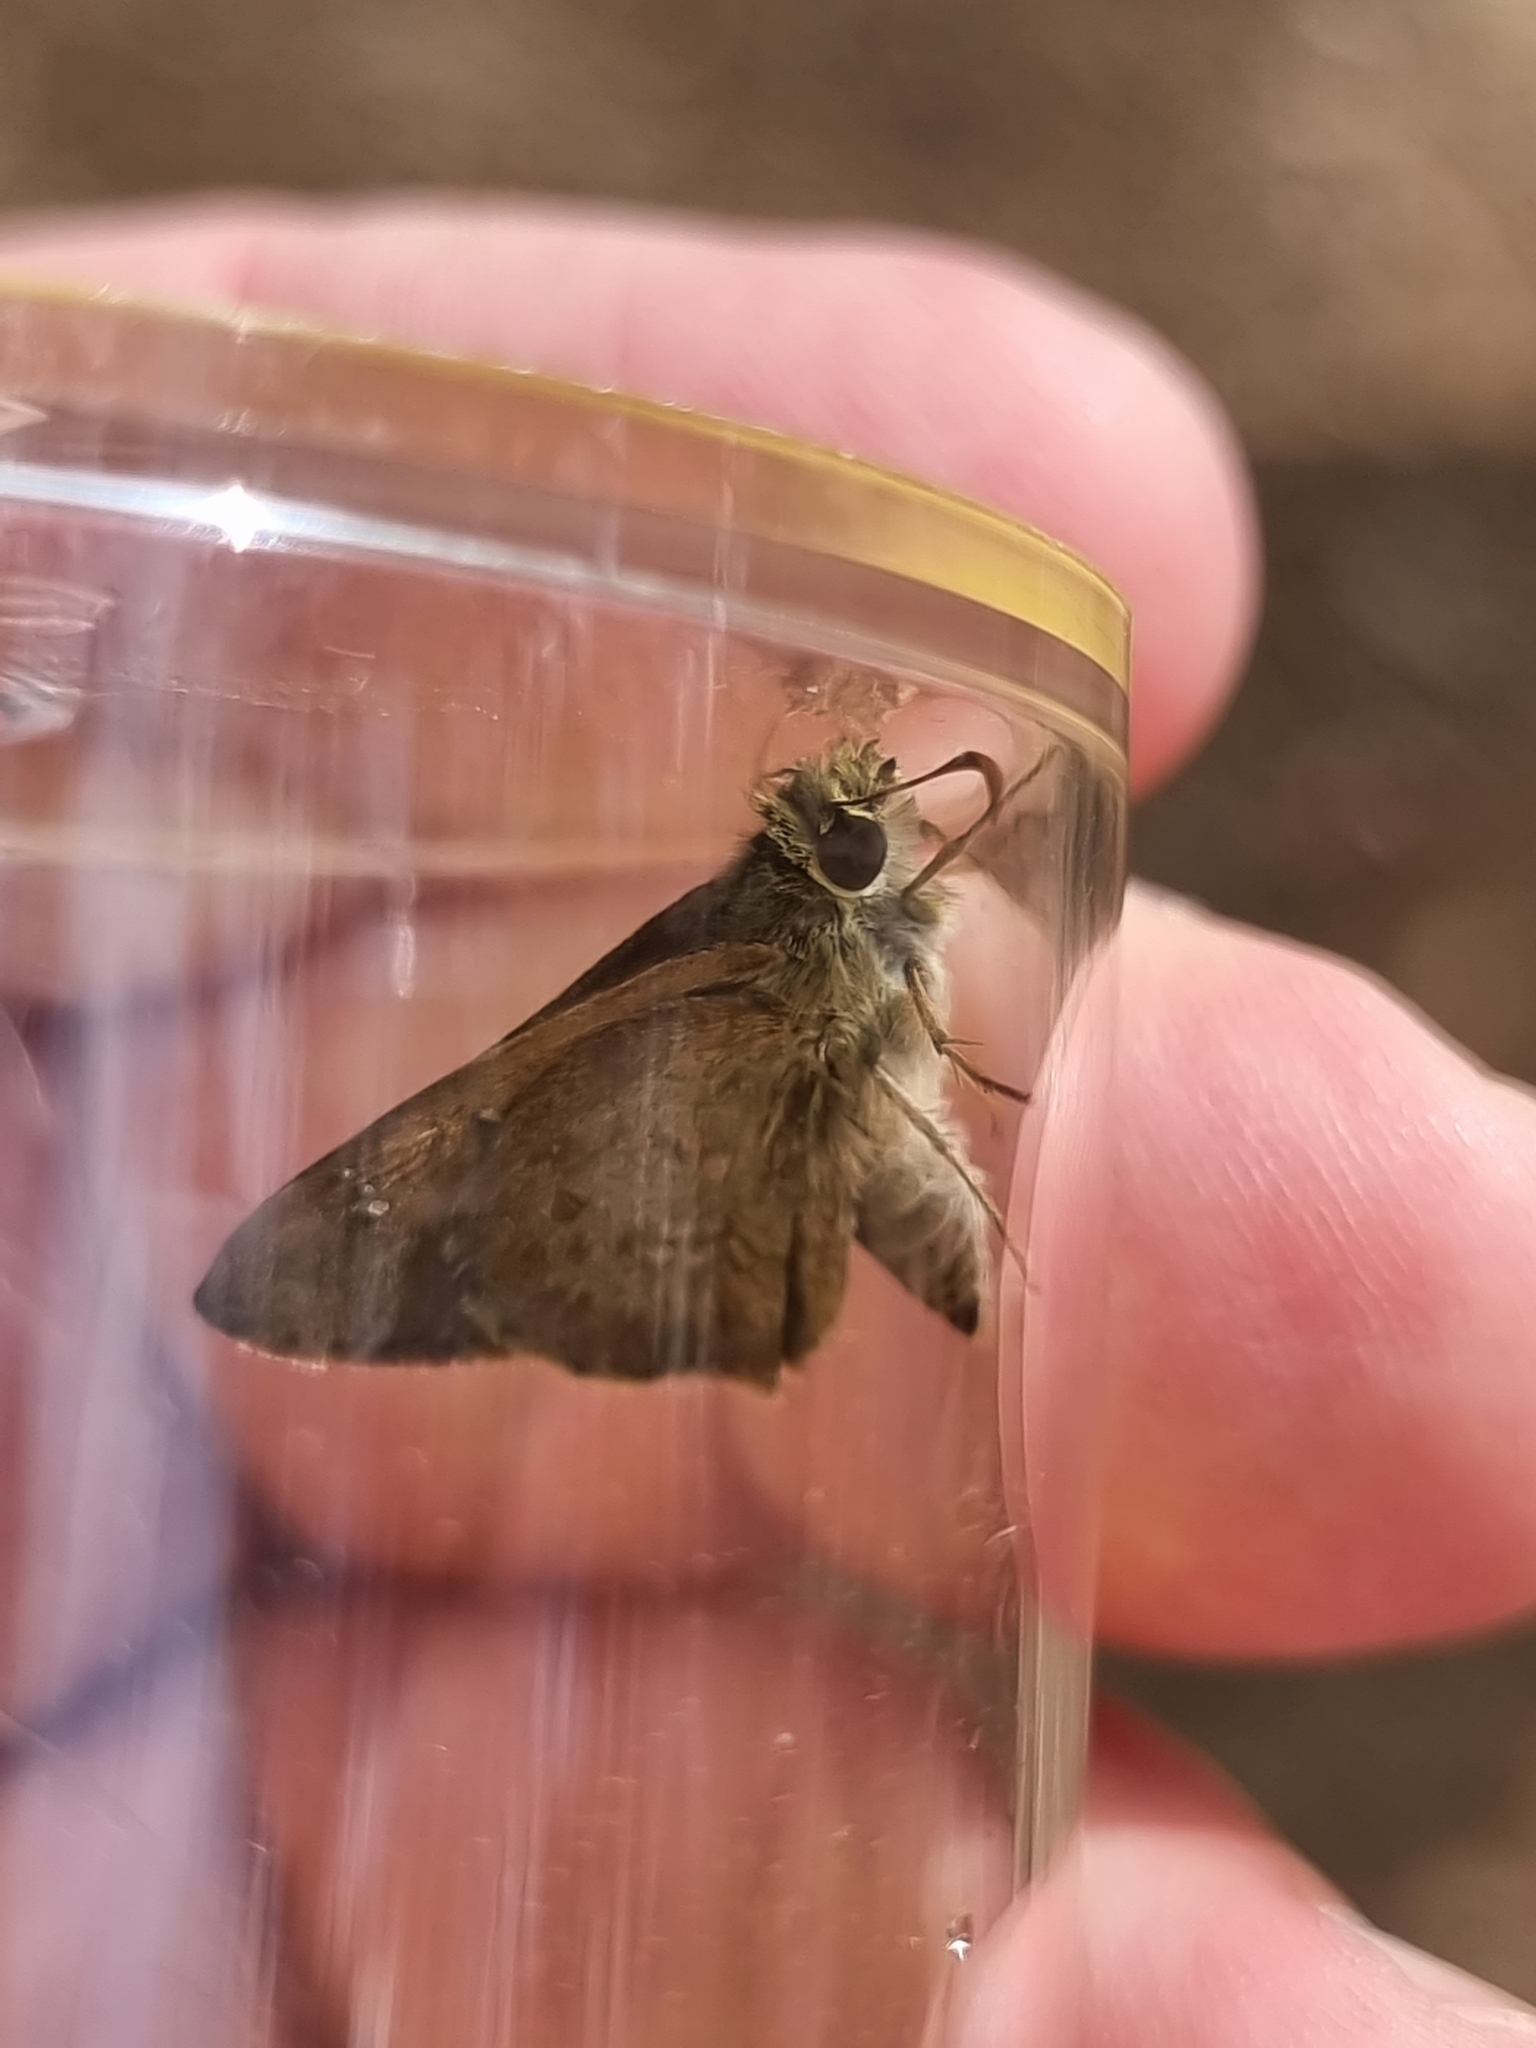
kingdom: Animalia
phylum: Arthropoda
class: Insecta
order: Lepidoptera
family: Hesperiidae
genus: Toxidia
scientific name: Toxidia
